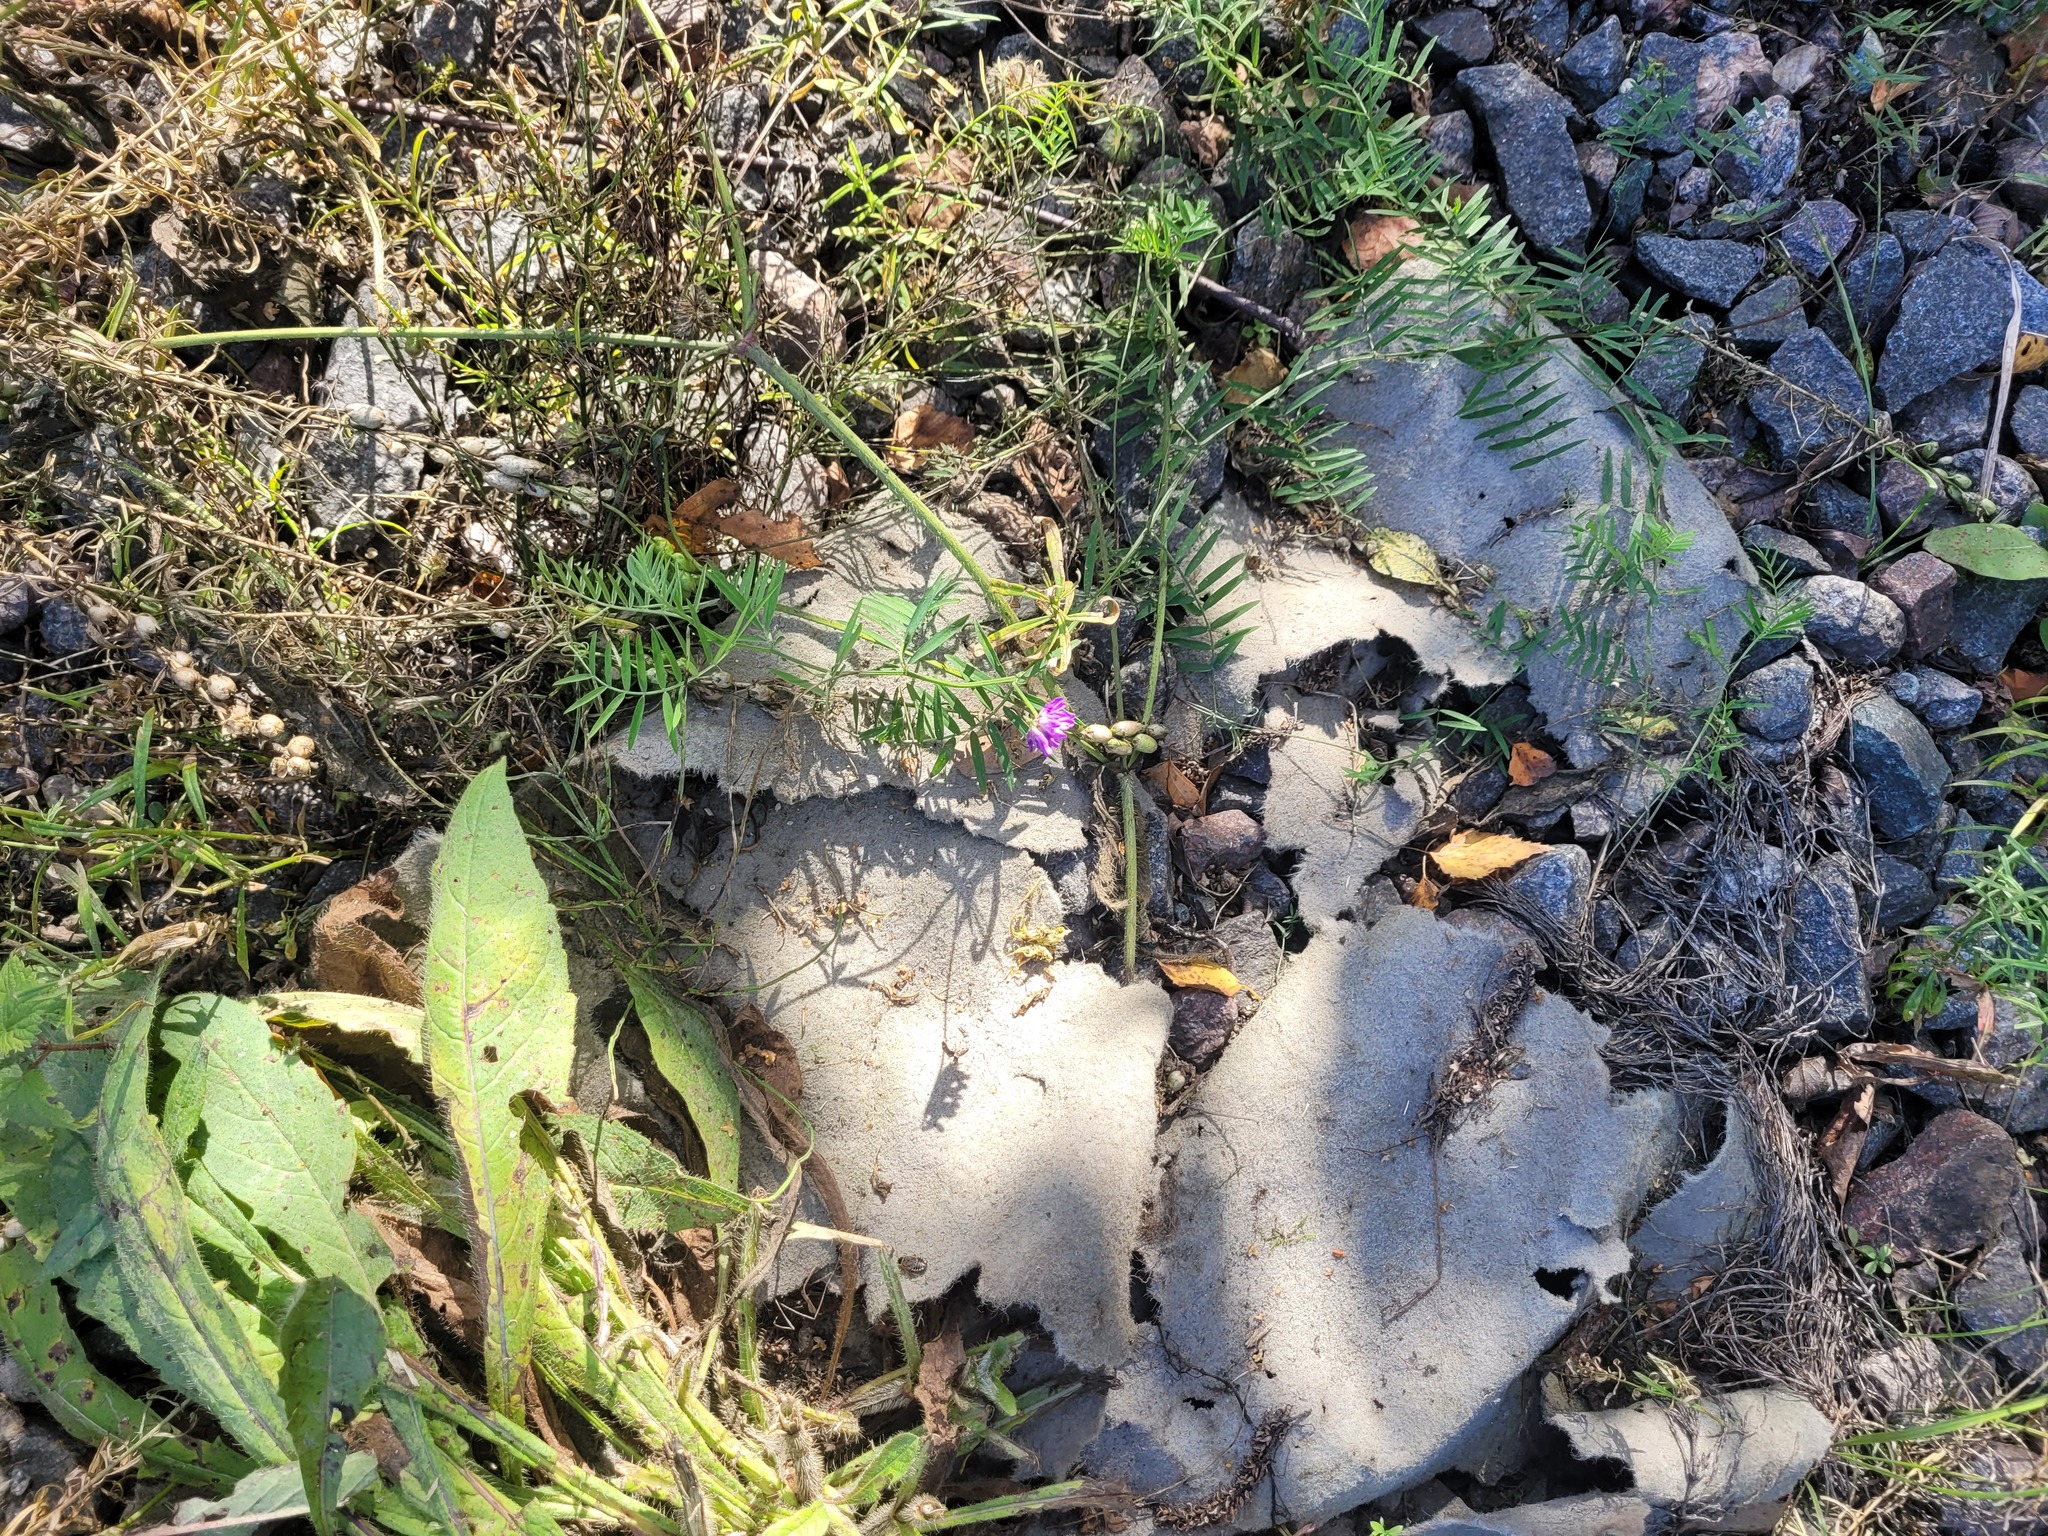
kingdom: Plantae
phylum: Tracheophyta
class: Magnoliopsida
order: Fabales
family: Fabaceae
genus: Vicia
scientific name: Vicia cracca
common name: Bird vetch
